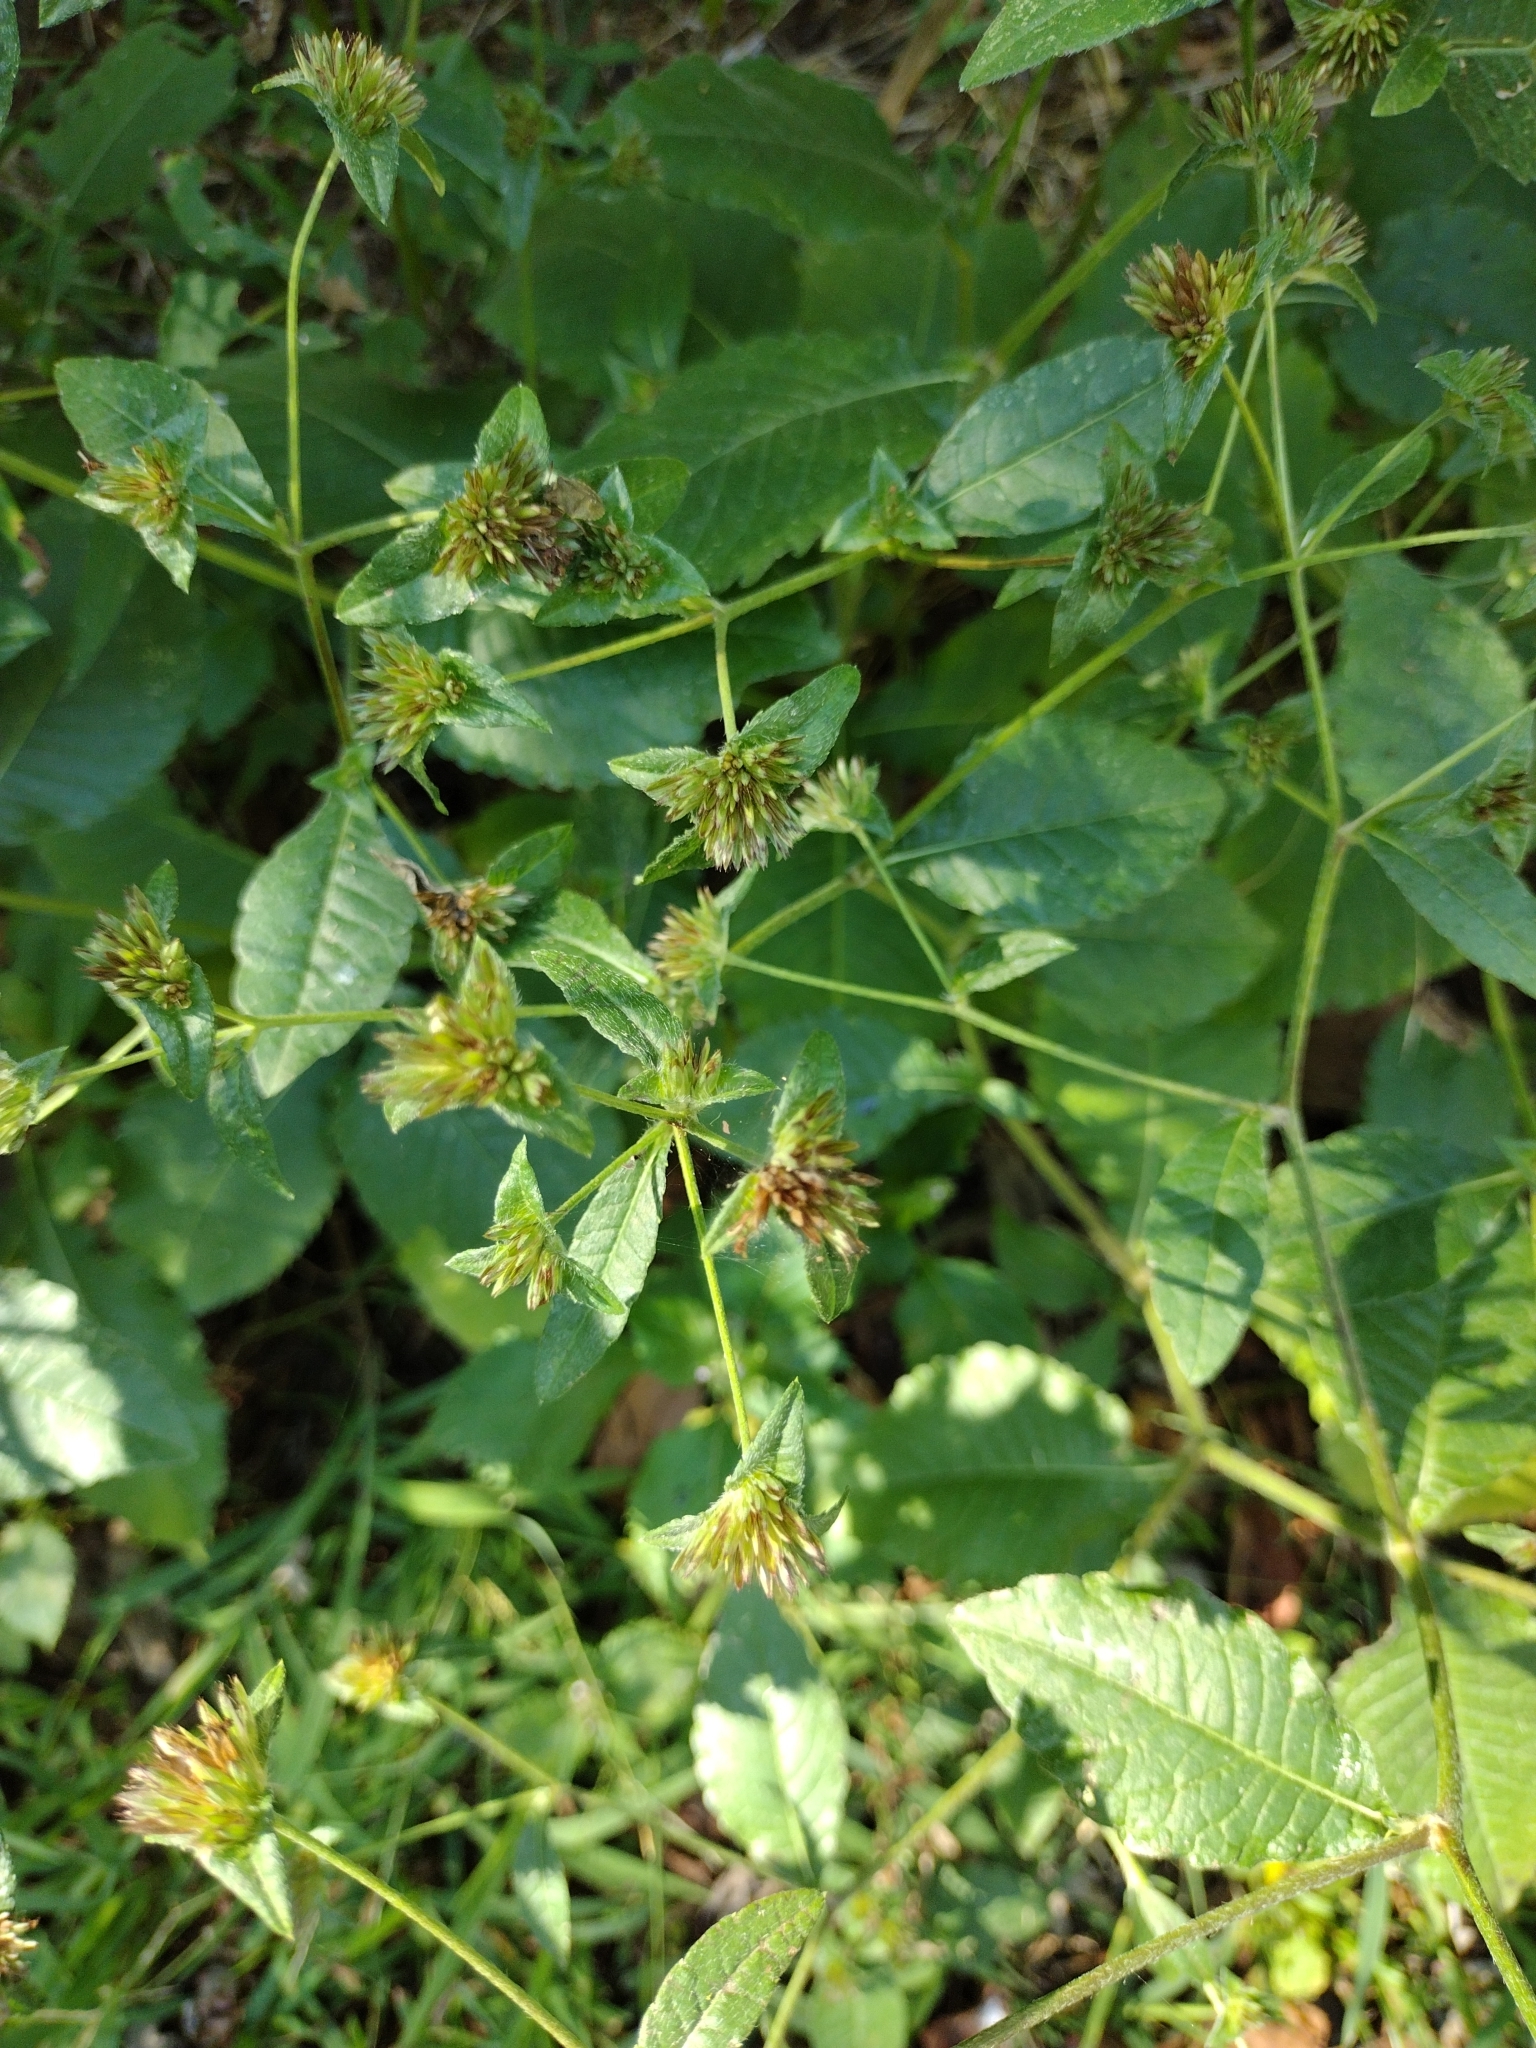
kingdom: Plantae
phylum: Tracheophyta
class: Magnoliopsida
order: Asterales
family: Asteraceae
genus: Elephantopus
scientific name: Elephantopus carolinianus
